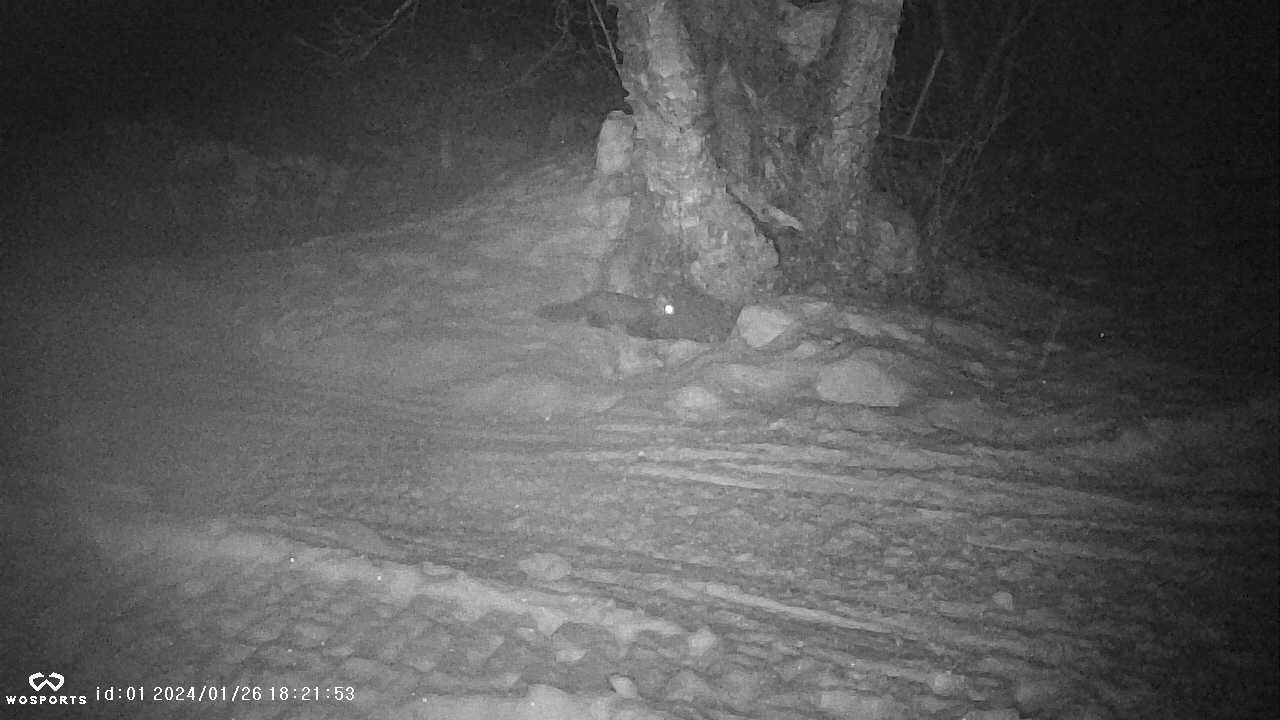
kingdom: Animalia
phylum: Chordata
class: Mammalia
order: Carnivora
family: Mustelidae
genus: Martes
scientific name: Martes americana
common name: American marten
